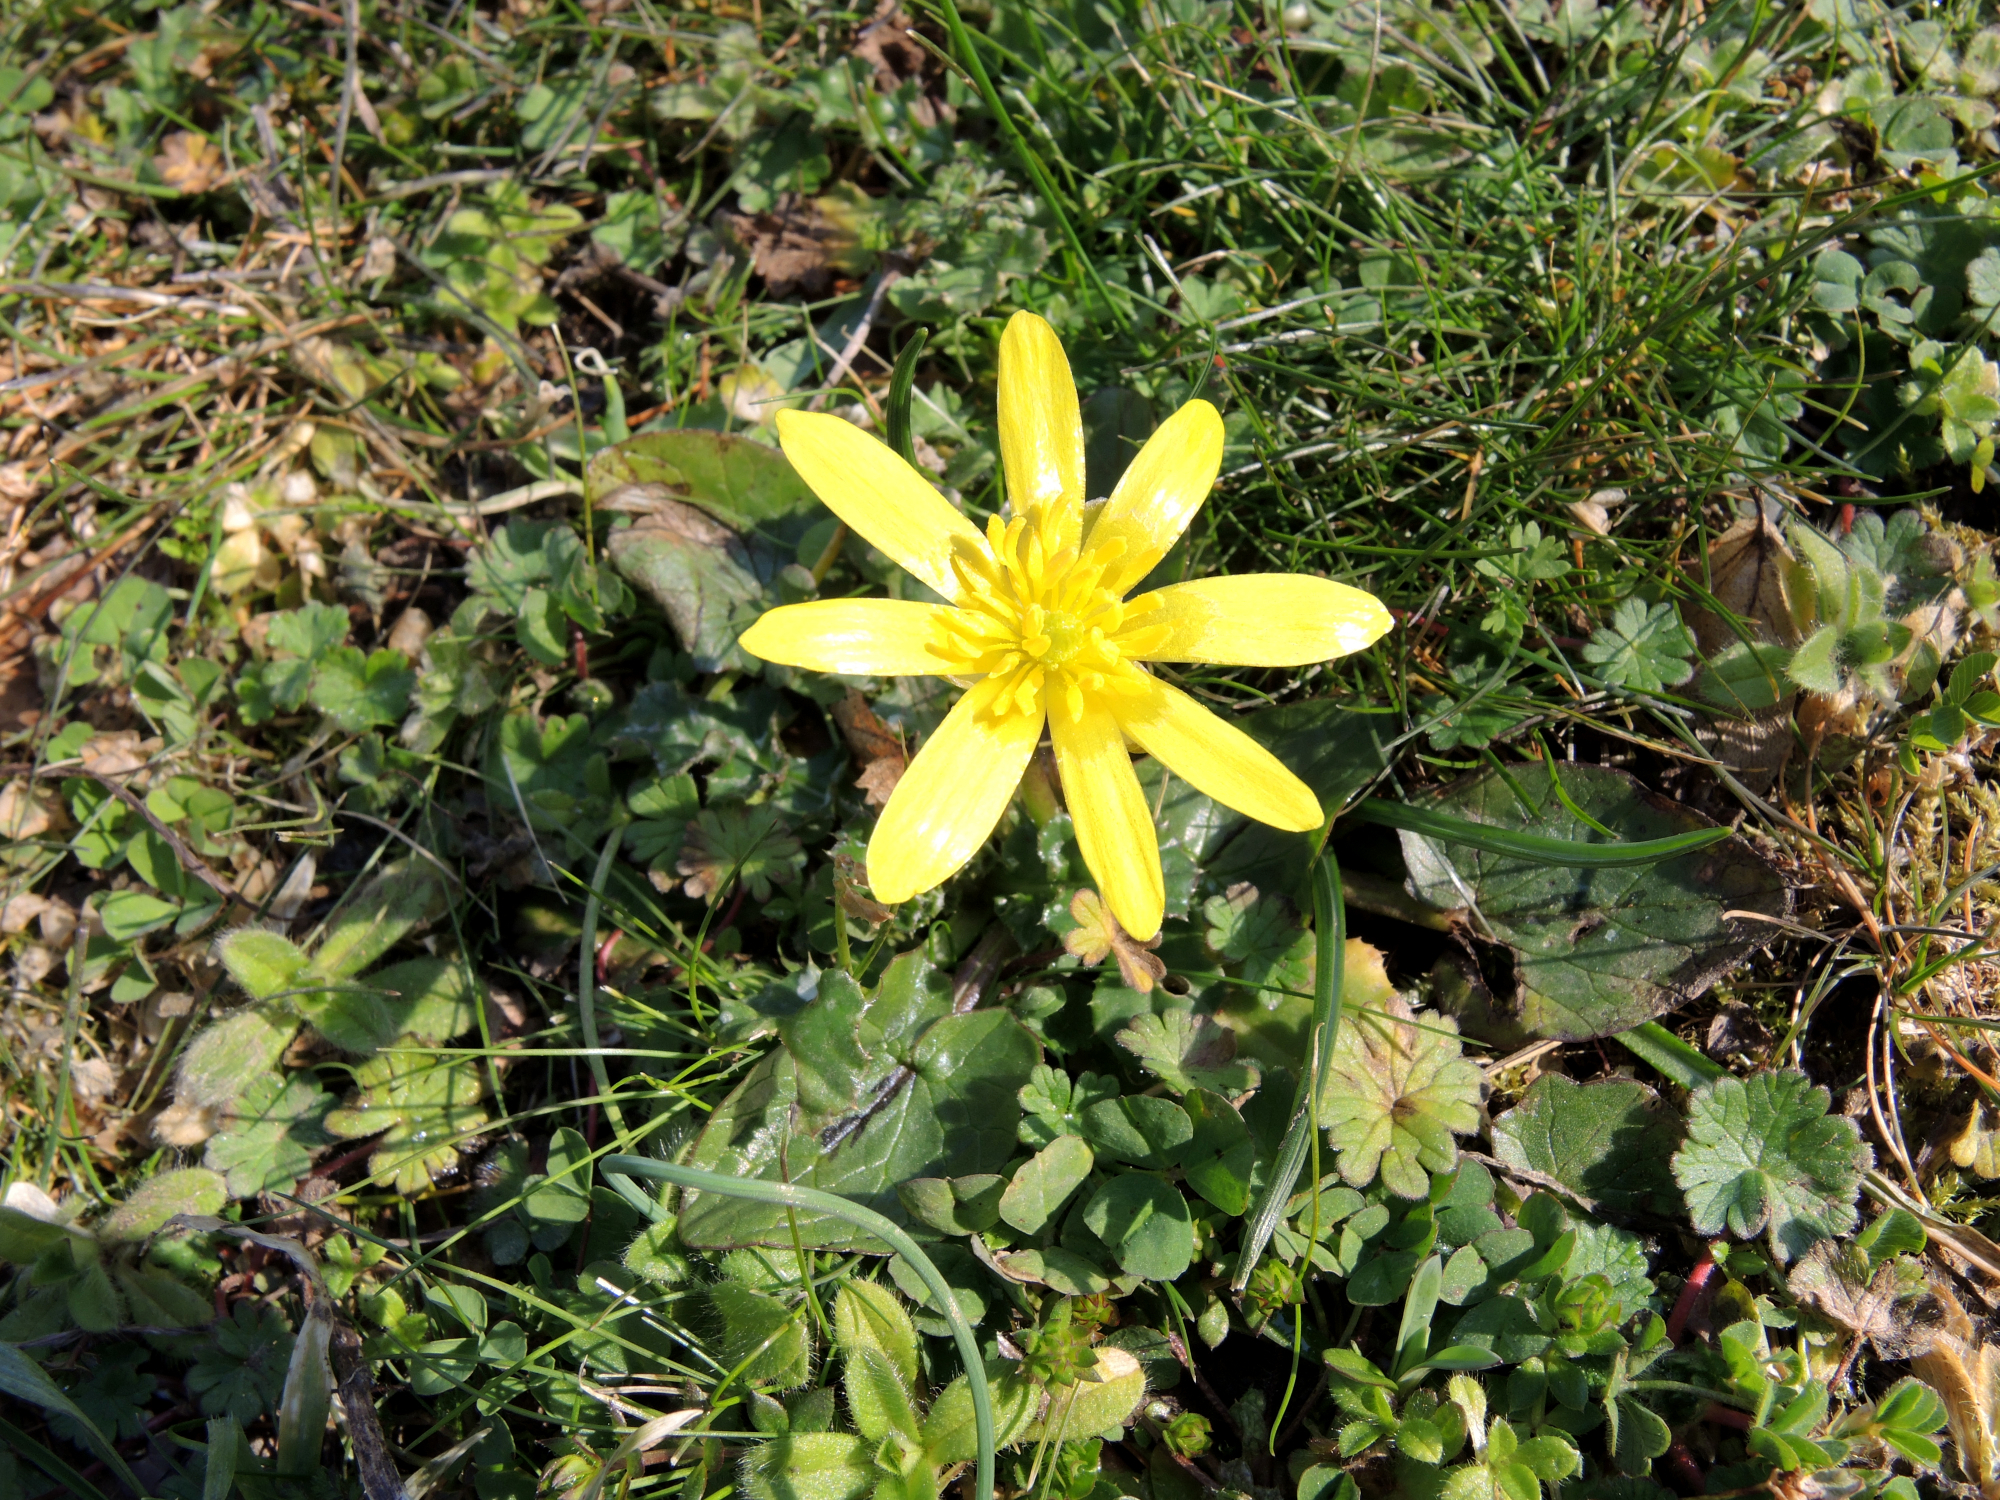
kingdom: Plantae
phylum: Tracheophyta
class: Magnoliopsida
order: Ranunculales
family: Ranunculaceae
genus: Ficaria
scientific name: Ficaria verna
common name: Lesser celandine
